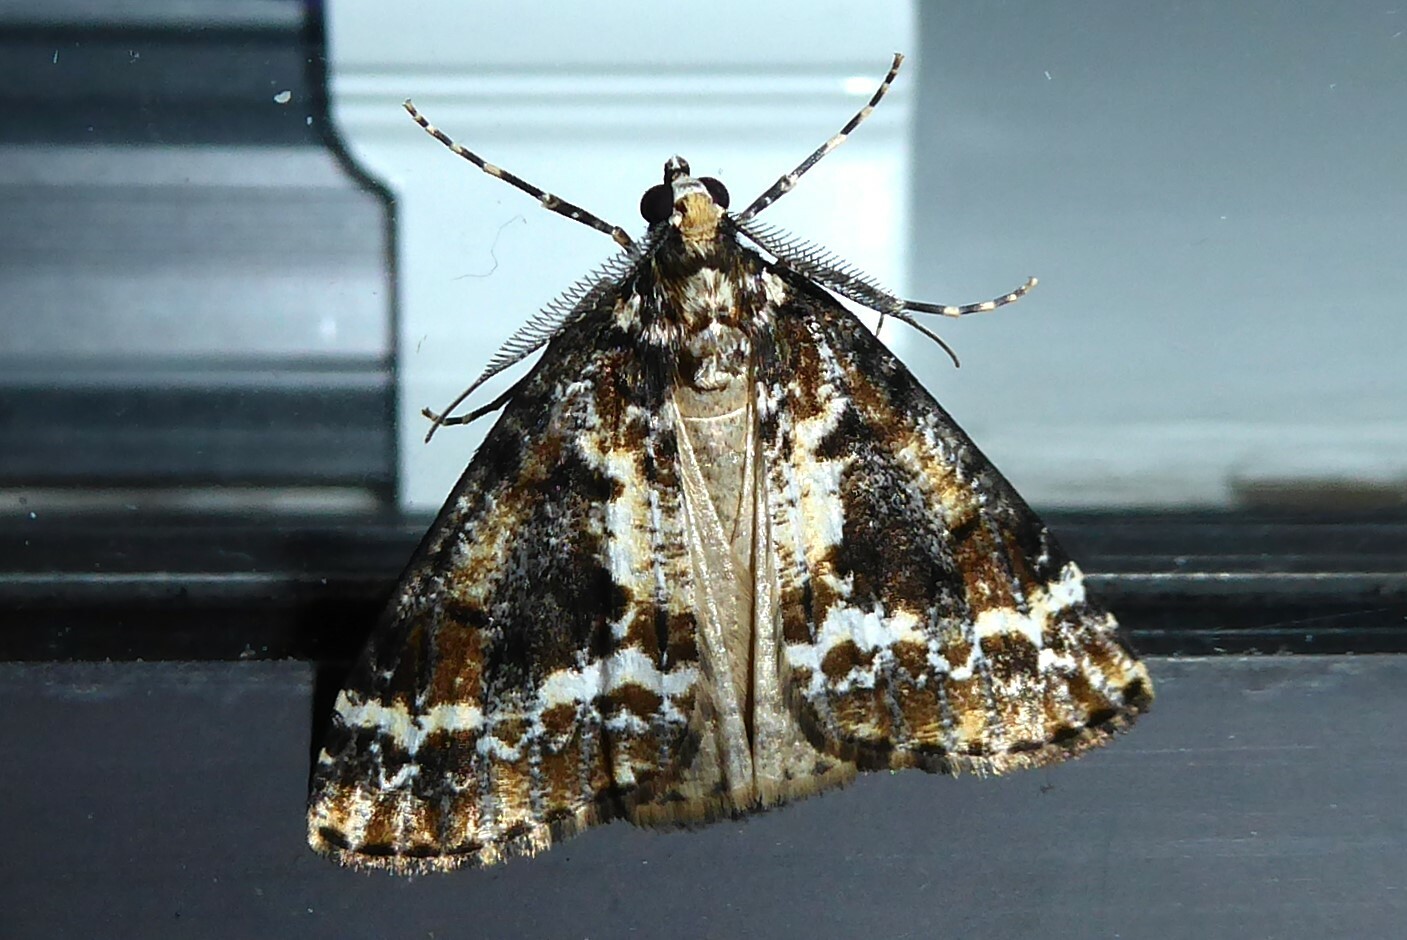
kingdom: Animalia
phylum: Arthropoda
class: Insecta
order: Lepidoptera
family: Geometridae
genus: Pseudocoremia
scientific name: Pseudocoremia leucelaea
